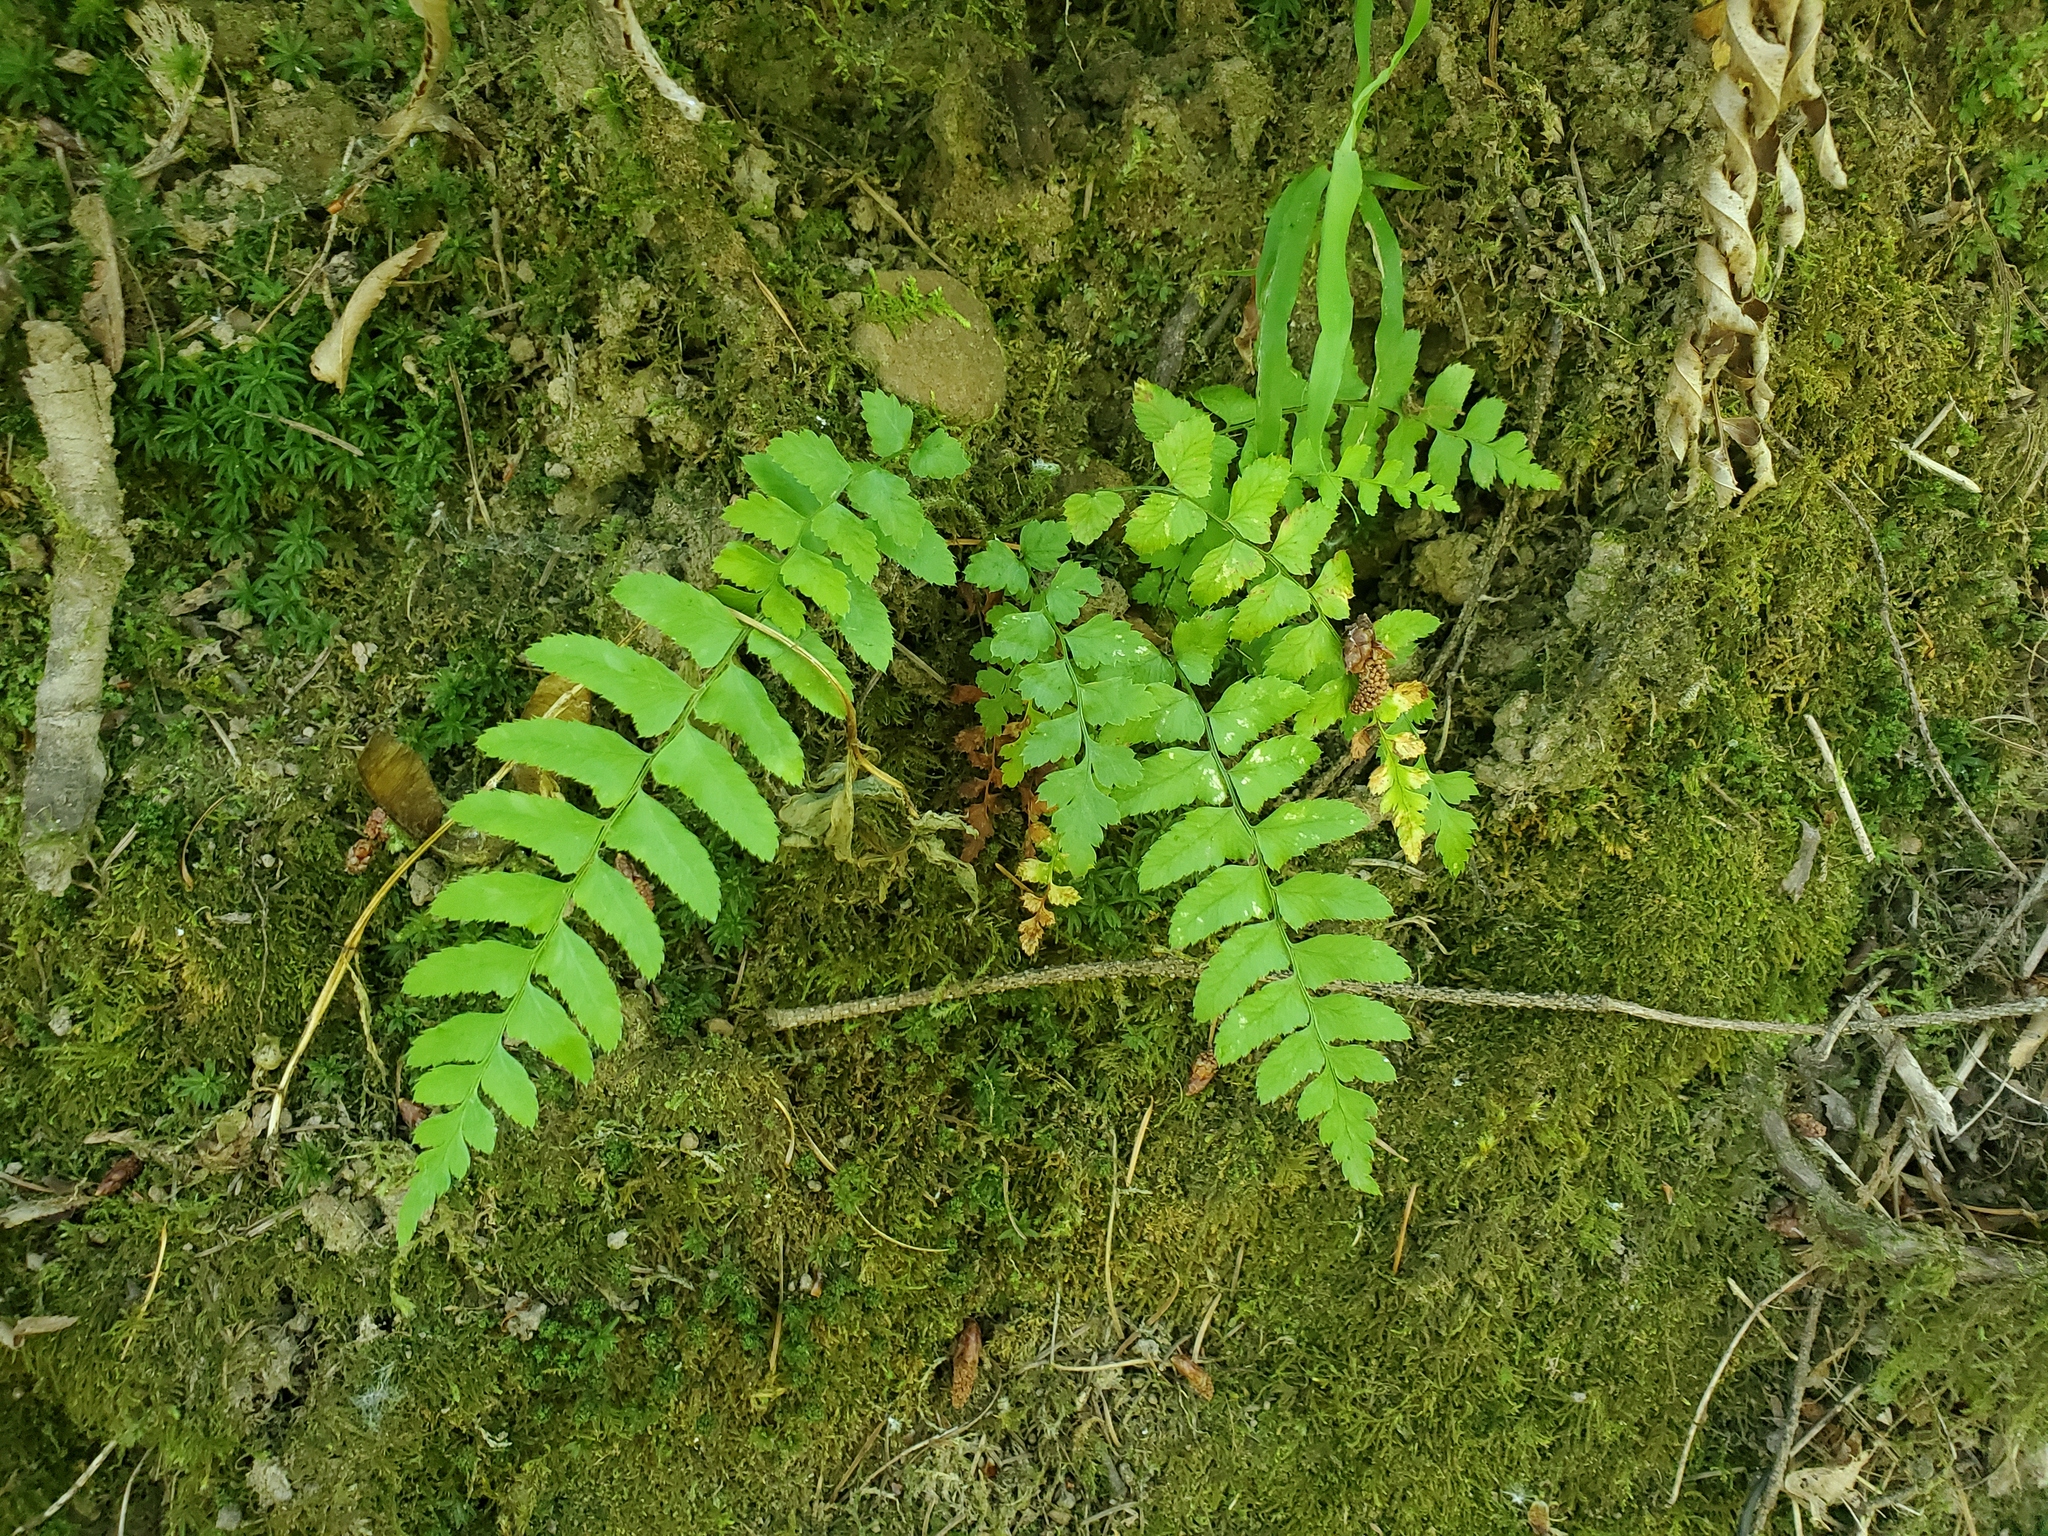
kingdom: Plantae
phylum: Tracheophyta
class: Polypodiopsida
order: Polypodiales
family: Dryopteridaceae
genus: Polystichum
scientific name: Polystichum munitum
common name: Western sword-fern
